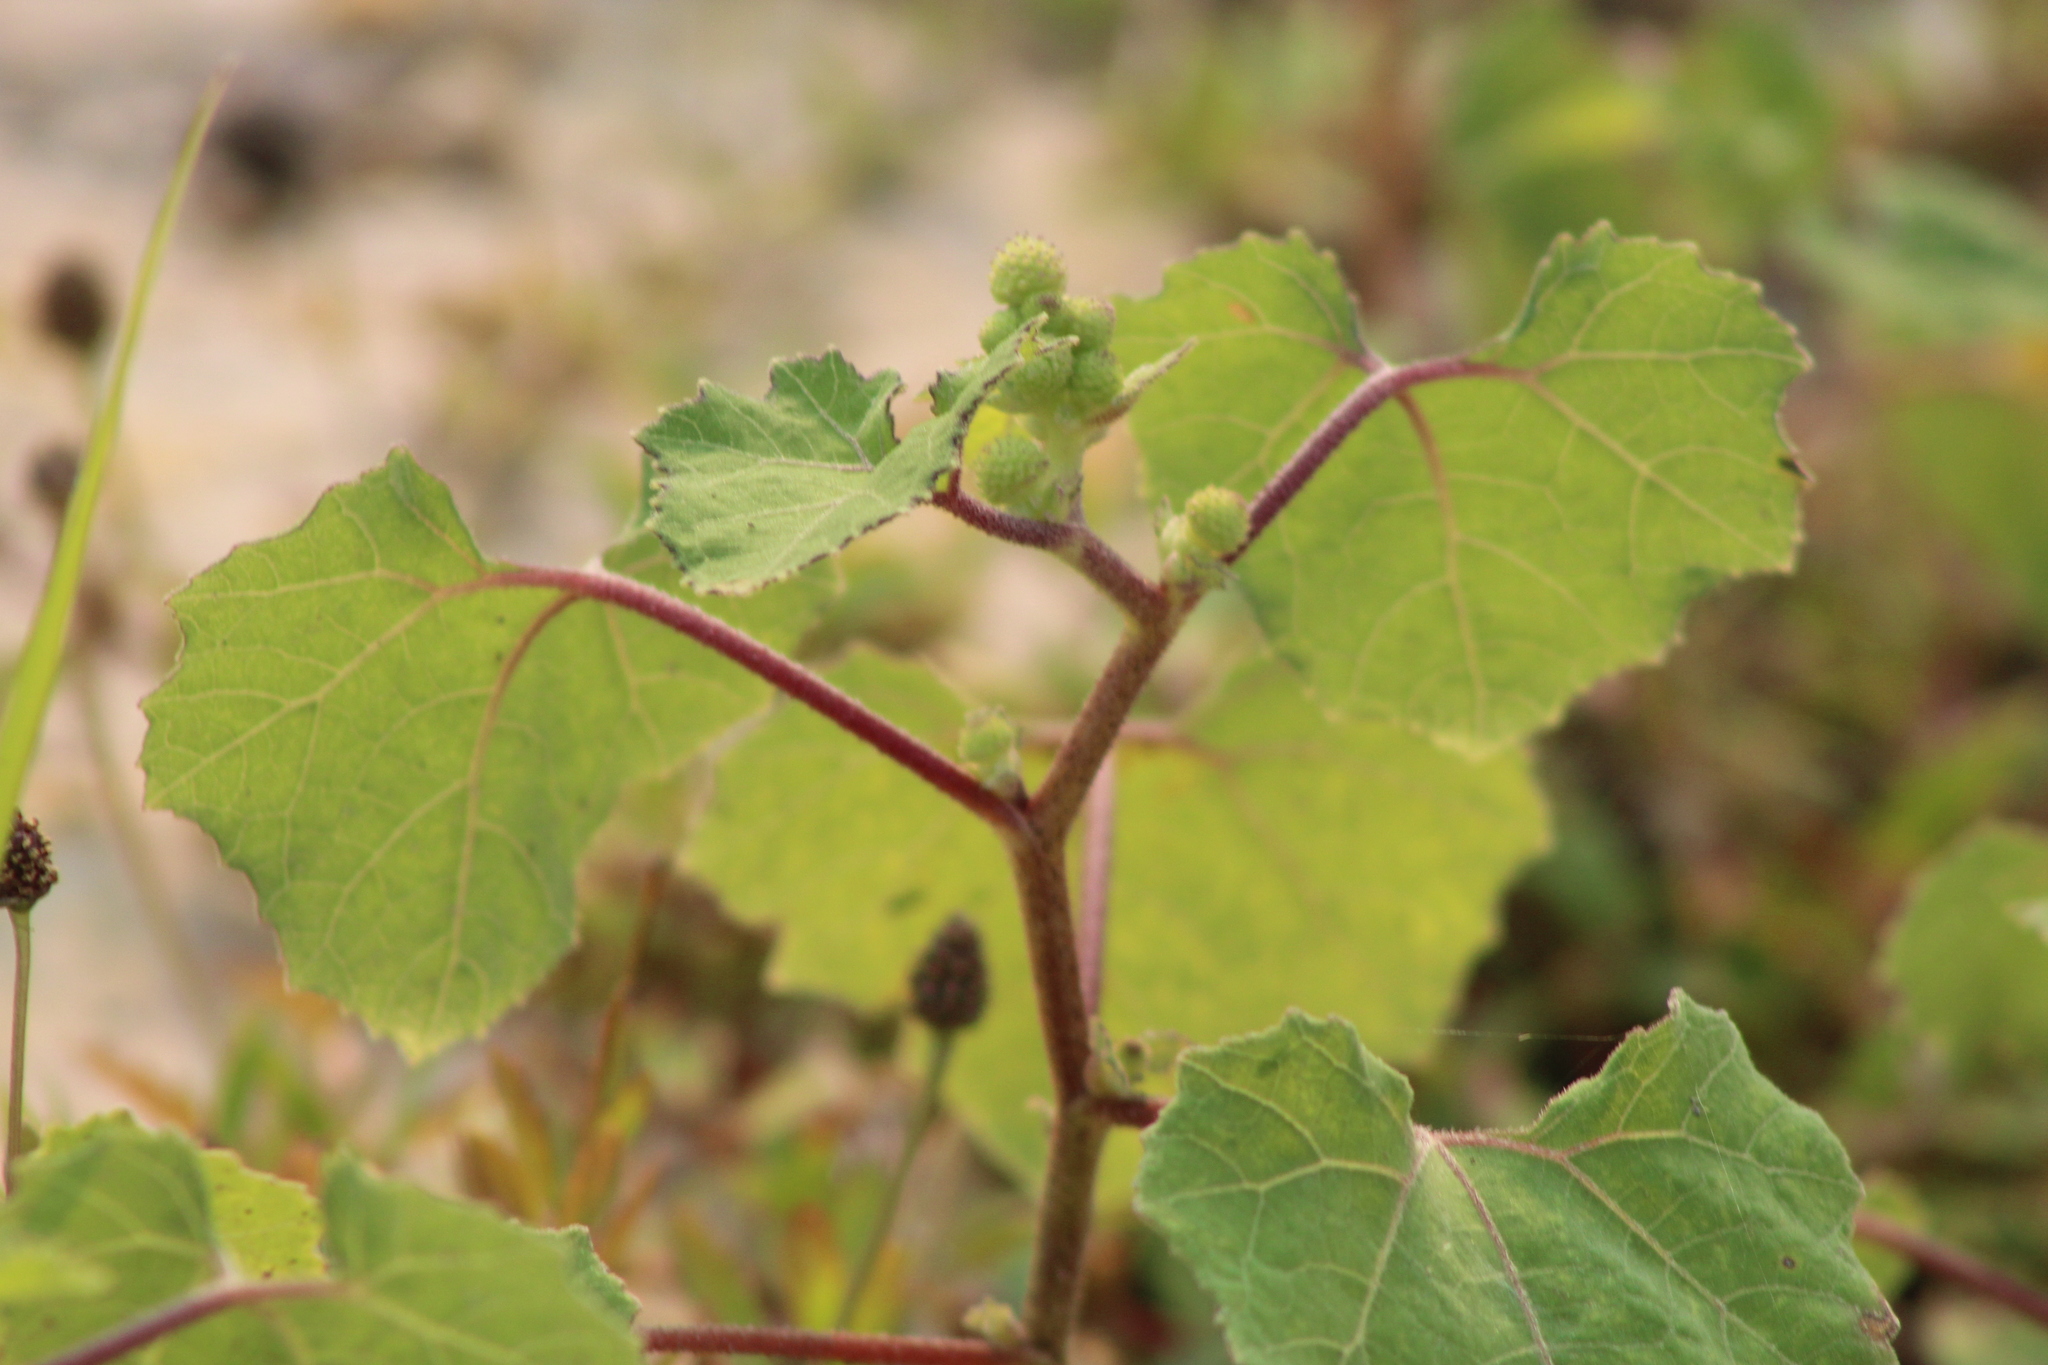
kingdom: Plantae
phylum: Tracheophyta
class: Magnoliopsida
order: Asterales
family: Asteraceae
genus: Xanthium
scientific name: Xanthium strumarium
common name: Rough cocklebur
